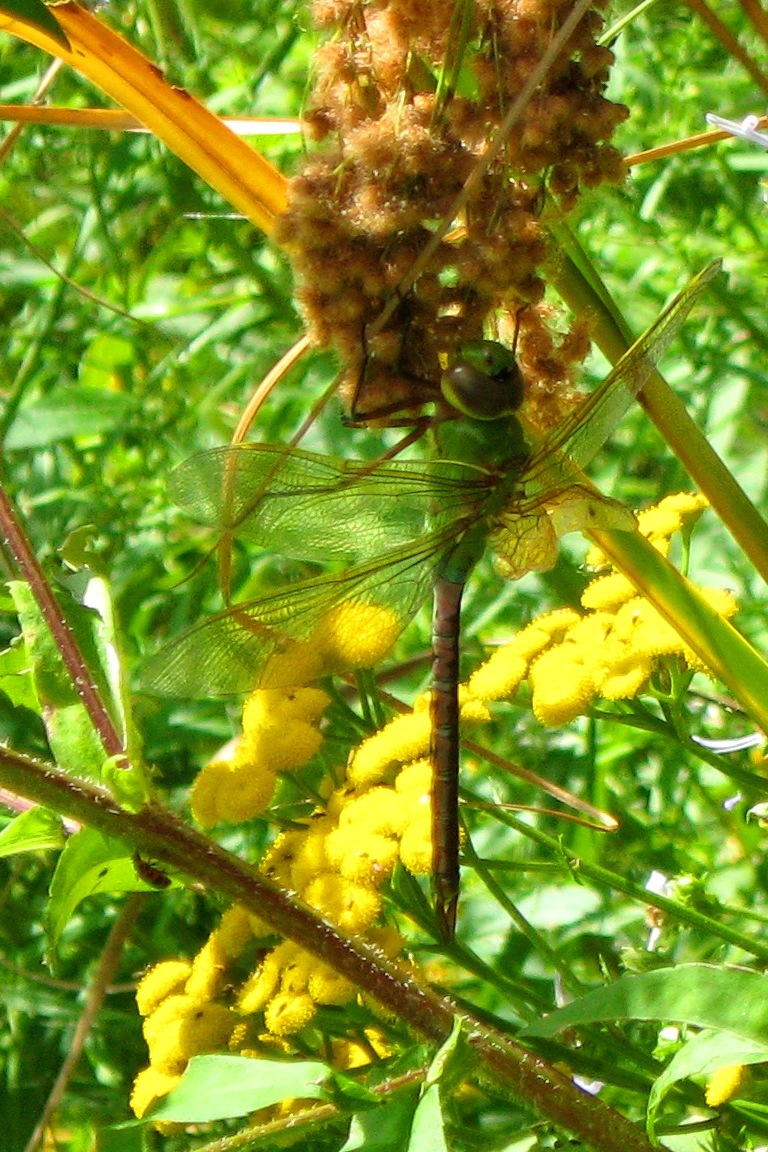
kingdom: Animalia
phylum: Arthropoda
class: Insecta
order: Odonata
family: Aeshnidae
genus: Anax
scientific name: Anax junius
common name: Common green darner
